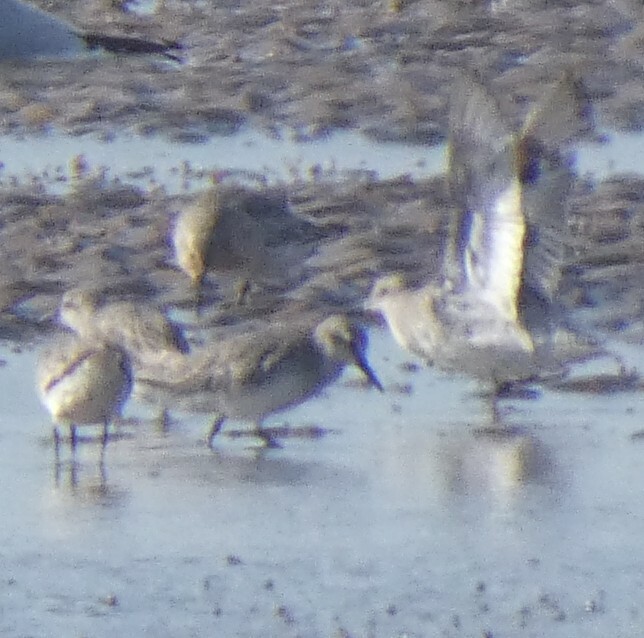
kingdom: Animalia
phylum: Chordata
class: Aves
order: Charadriiformes
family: Scolopacidae
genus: Calidris
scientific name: Calidris canutus
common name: Red knot
